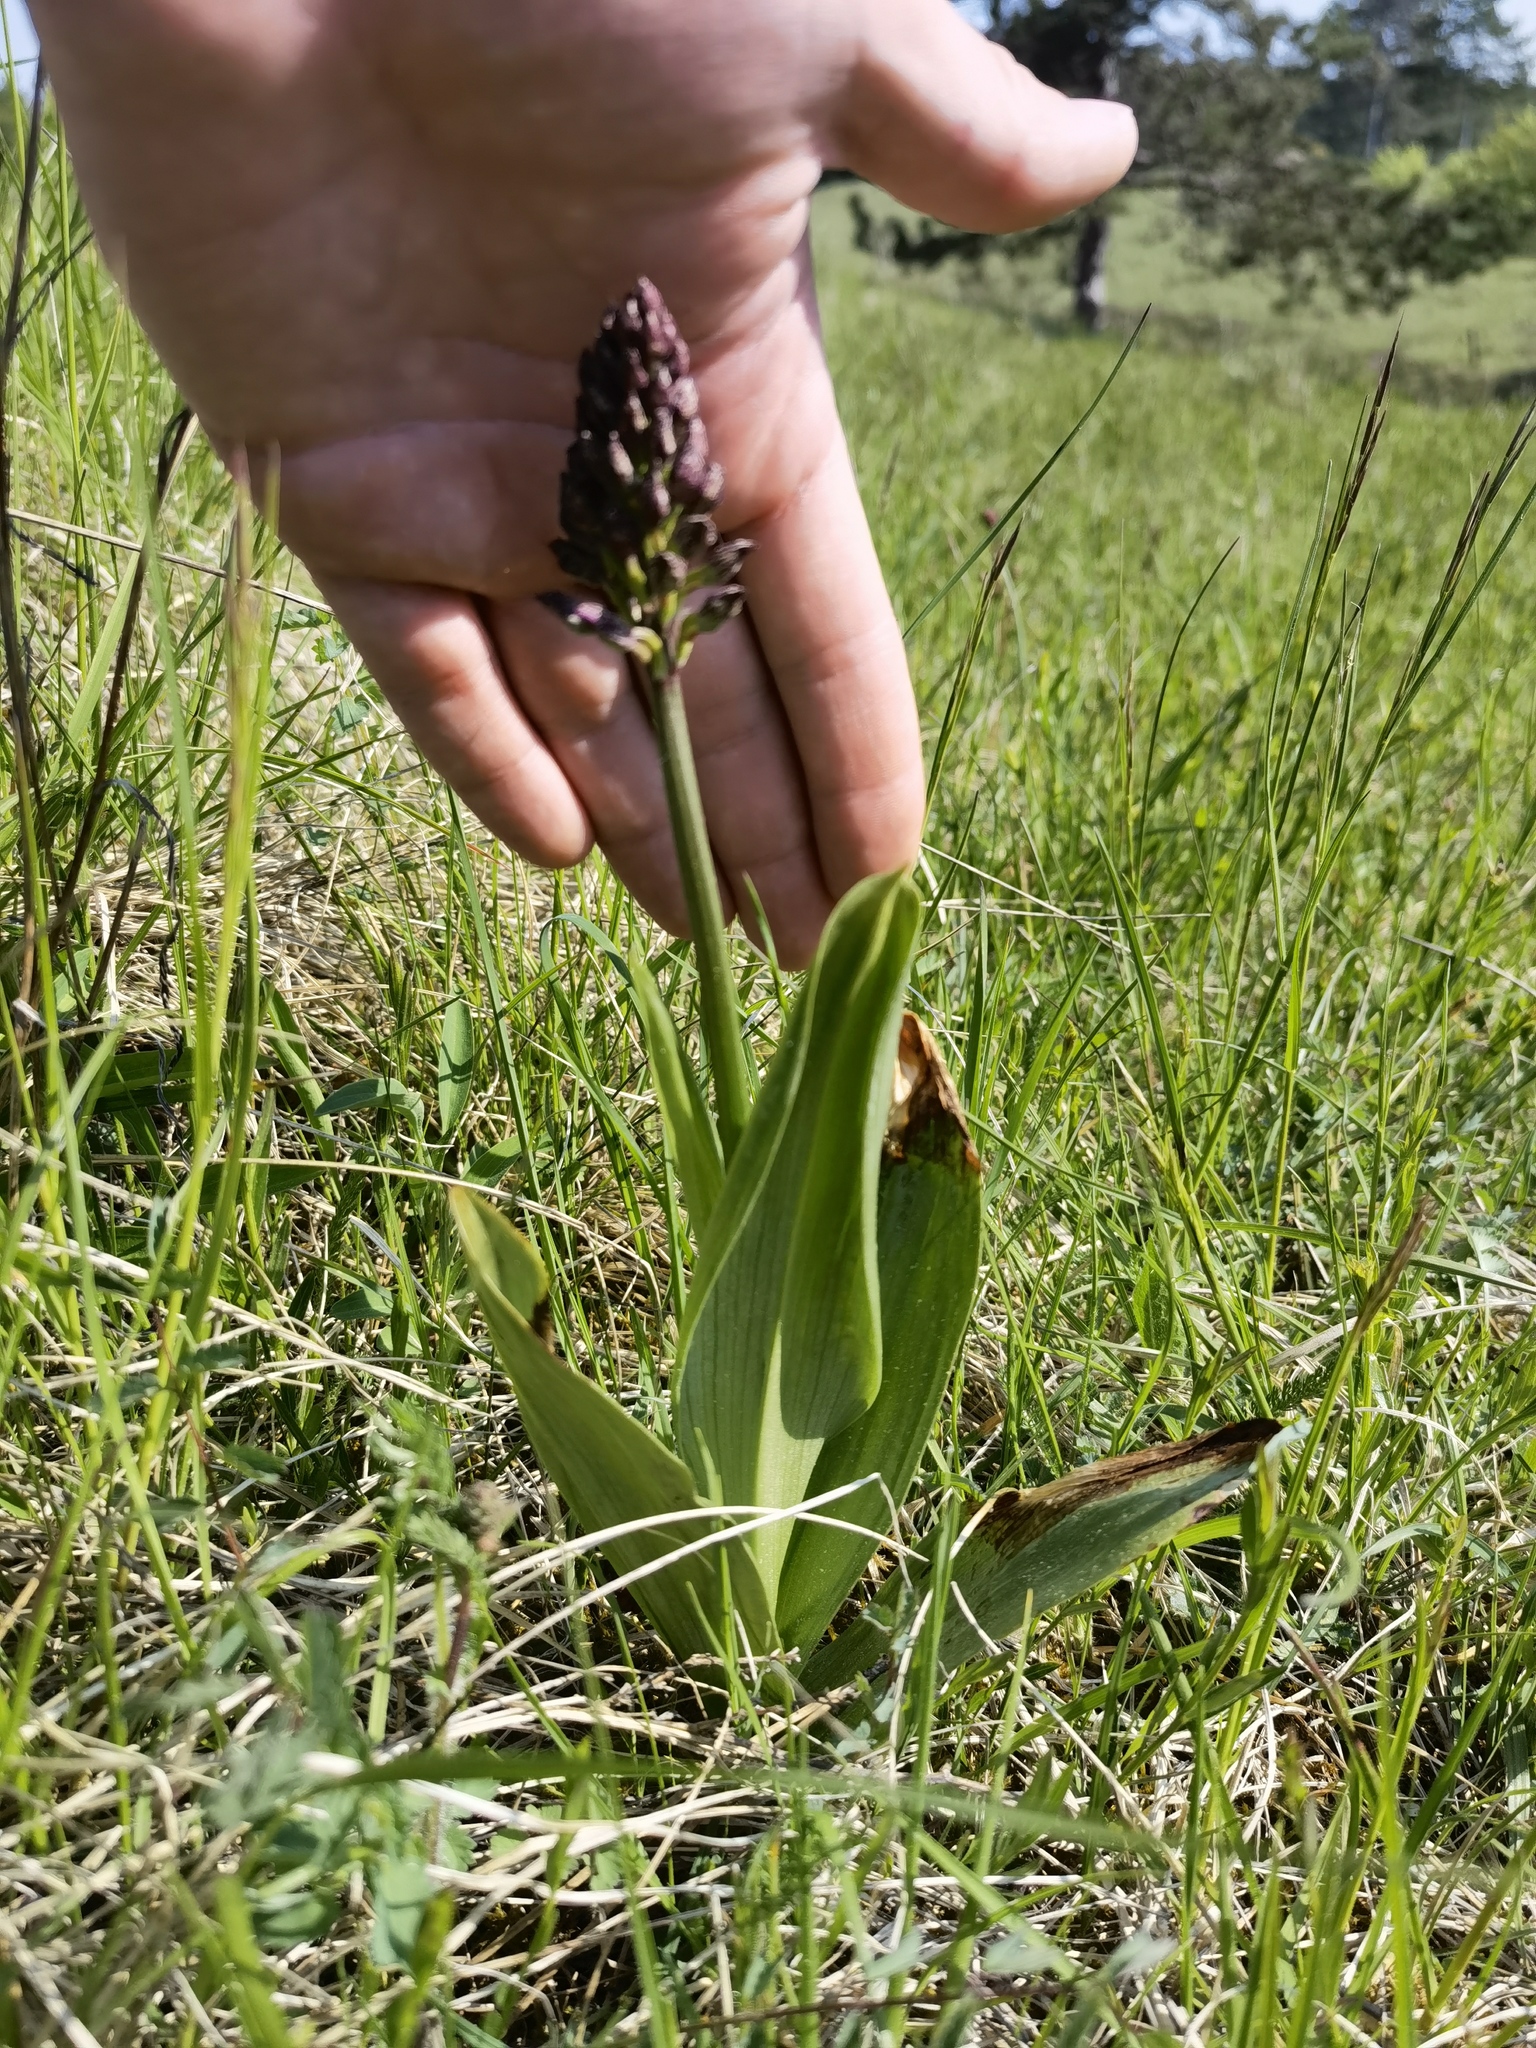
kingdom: Plantae
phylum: Tracheophyta
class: Liliopsida
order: Asparagales
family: Orchidaceae
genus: Orchis
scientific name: Orchis purpurea
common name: Lady orchid
